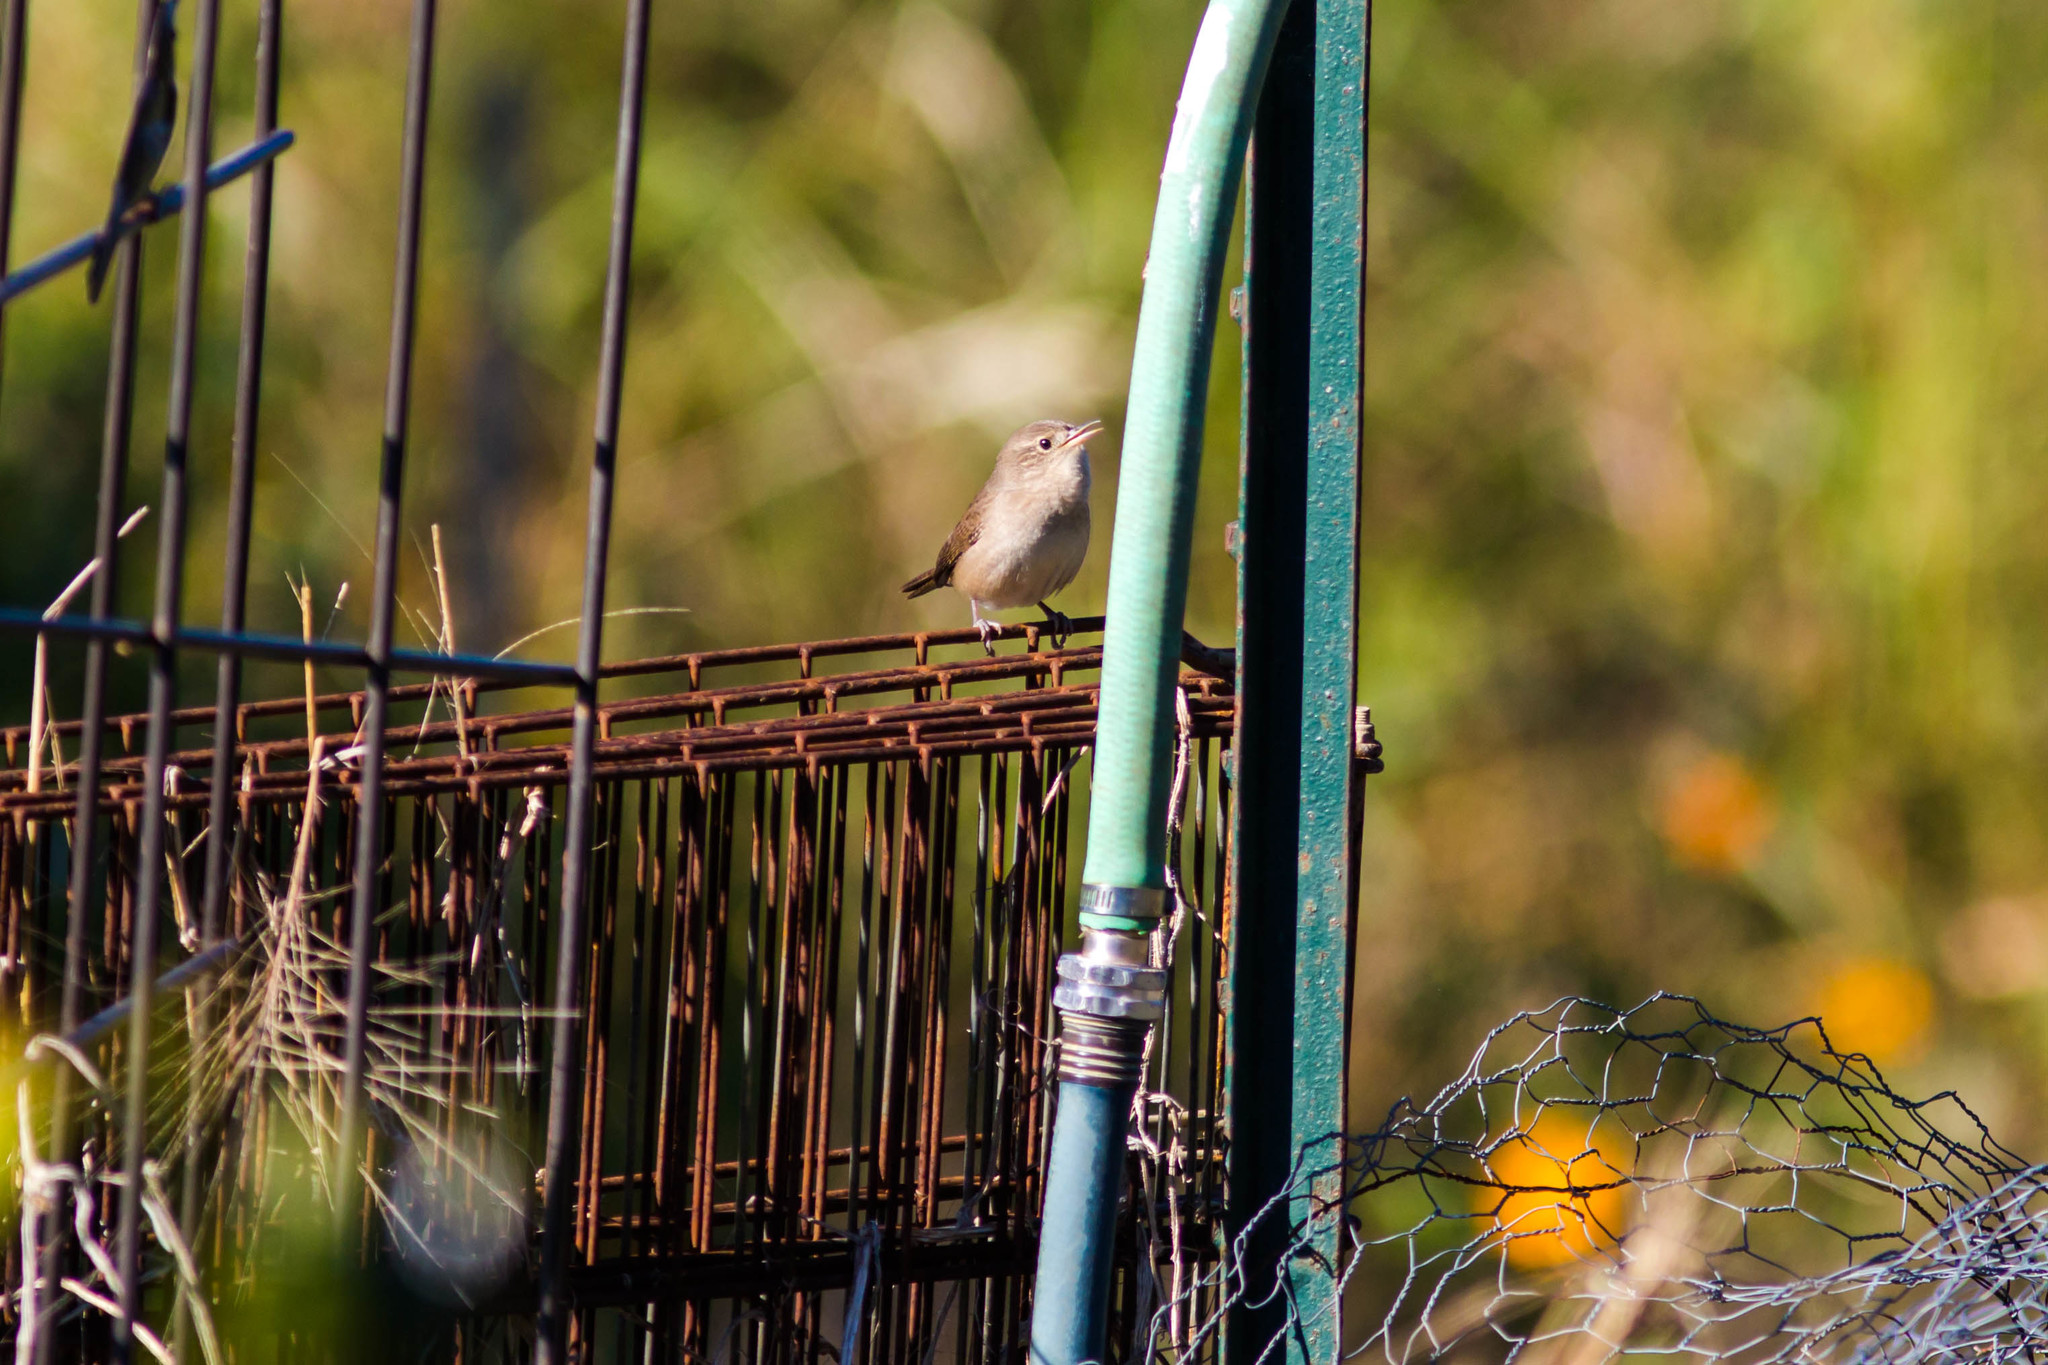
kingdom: Animalia
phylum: Chordata
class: Aves
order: Passeriformes
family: Troglodytidae
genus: Troglodytes
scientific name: Troglodytes aedon
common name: House wren
